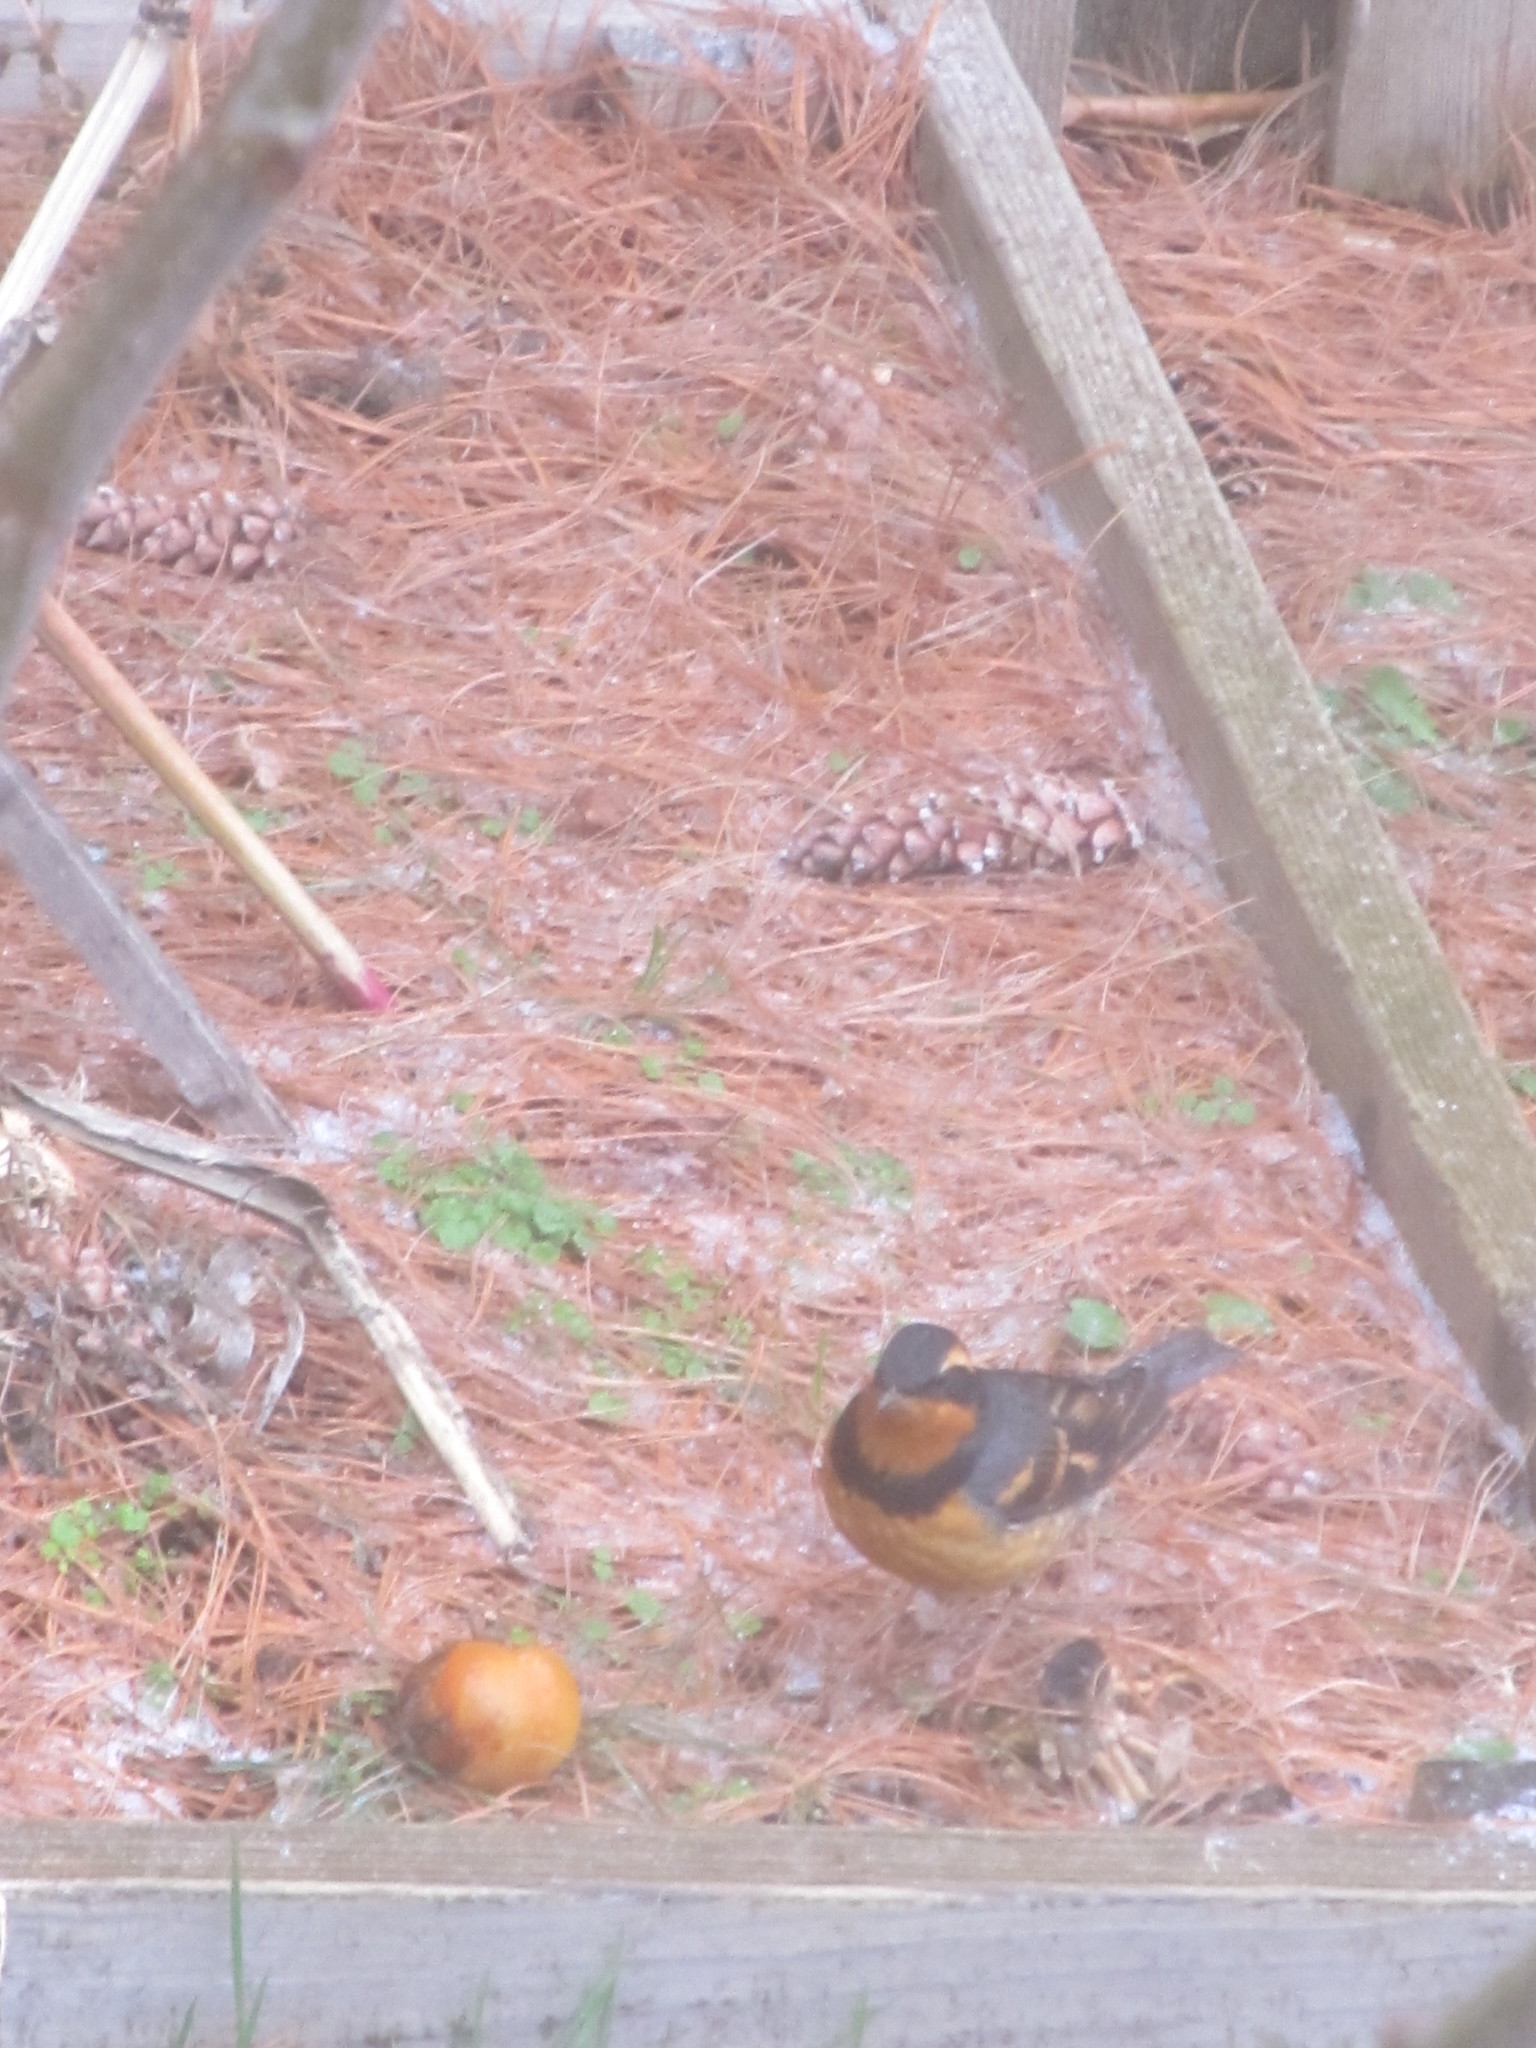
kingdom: Animalia
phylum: Chordata
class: Aves
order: Passeriformes
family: Turdidae
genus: Ixoreus
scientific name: Ixoreus naevius
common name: Varied thrush
